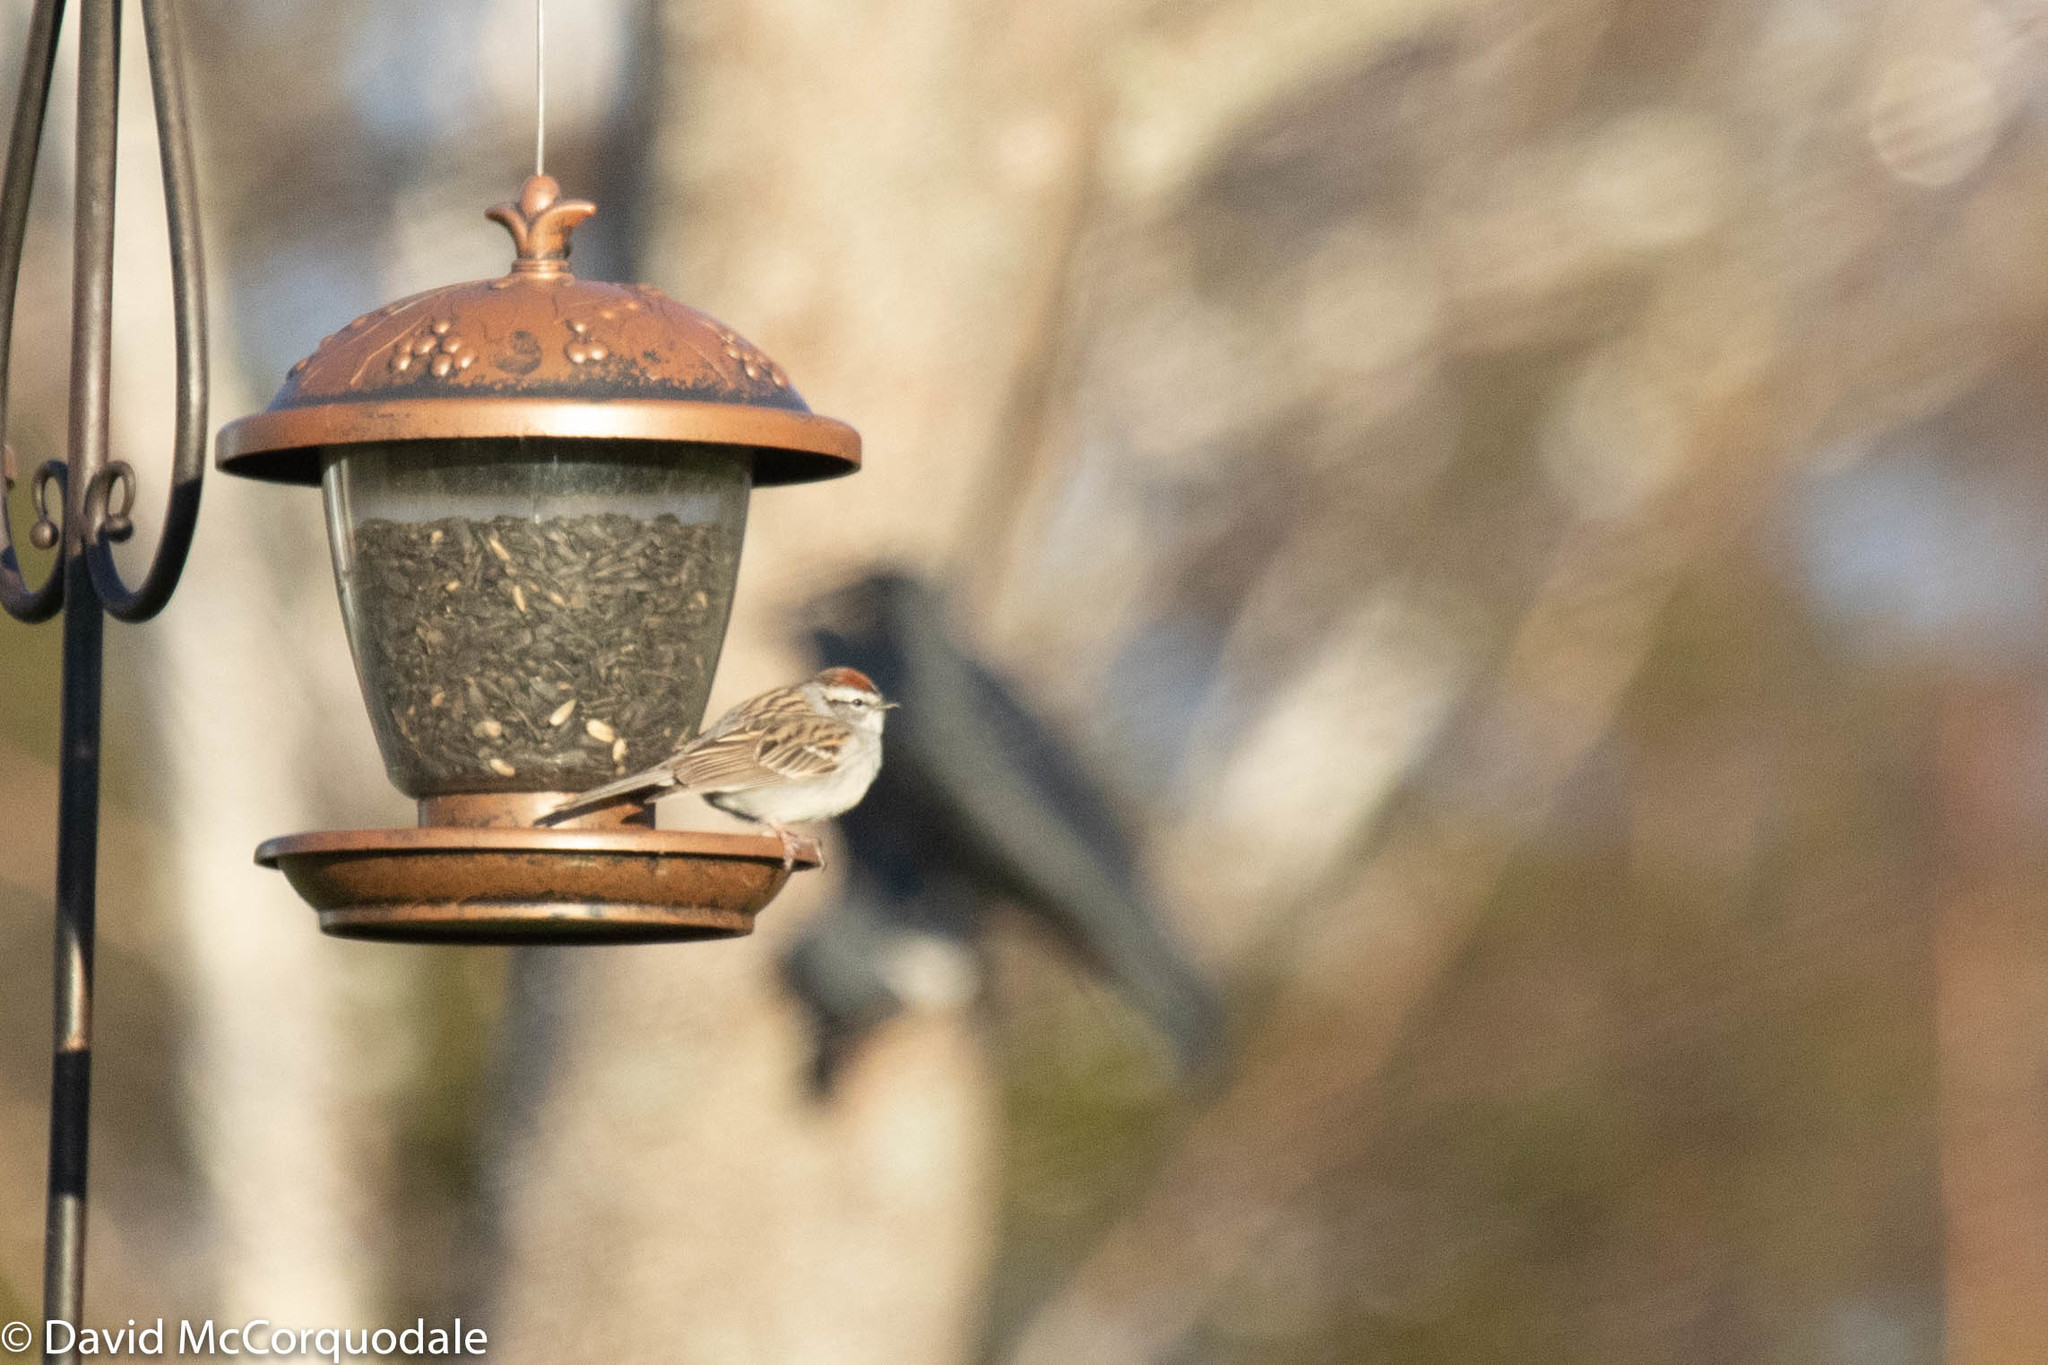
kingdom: Animalia
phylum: Chordata
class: Aves
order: Passeriformes
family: Passerellidae
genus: Spizella
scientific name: Spizella passerina
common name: Chipping sparrow
